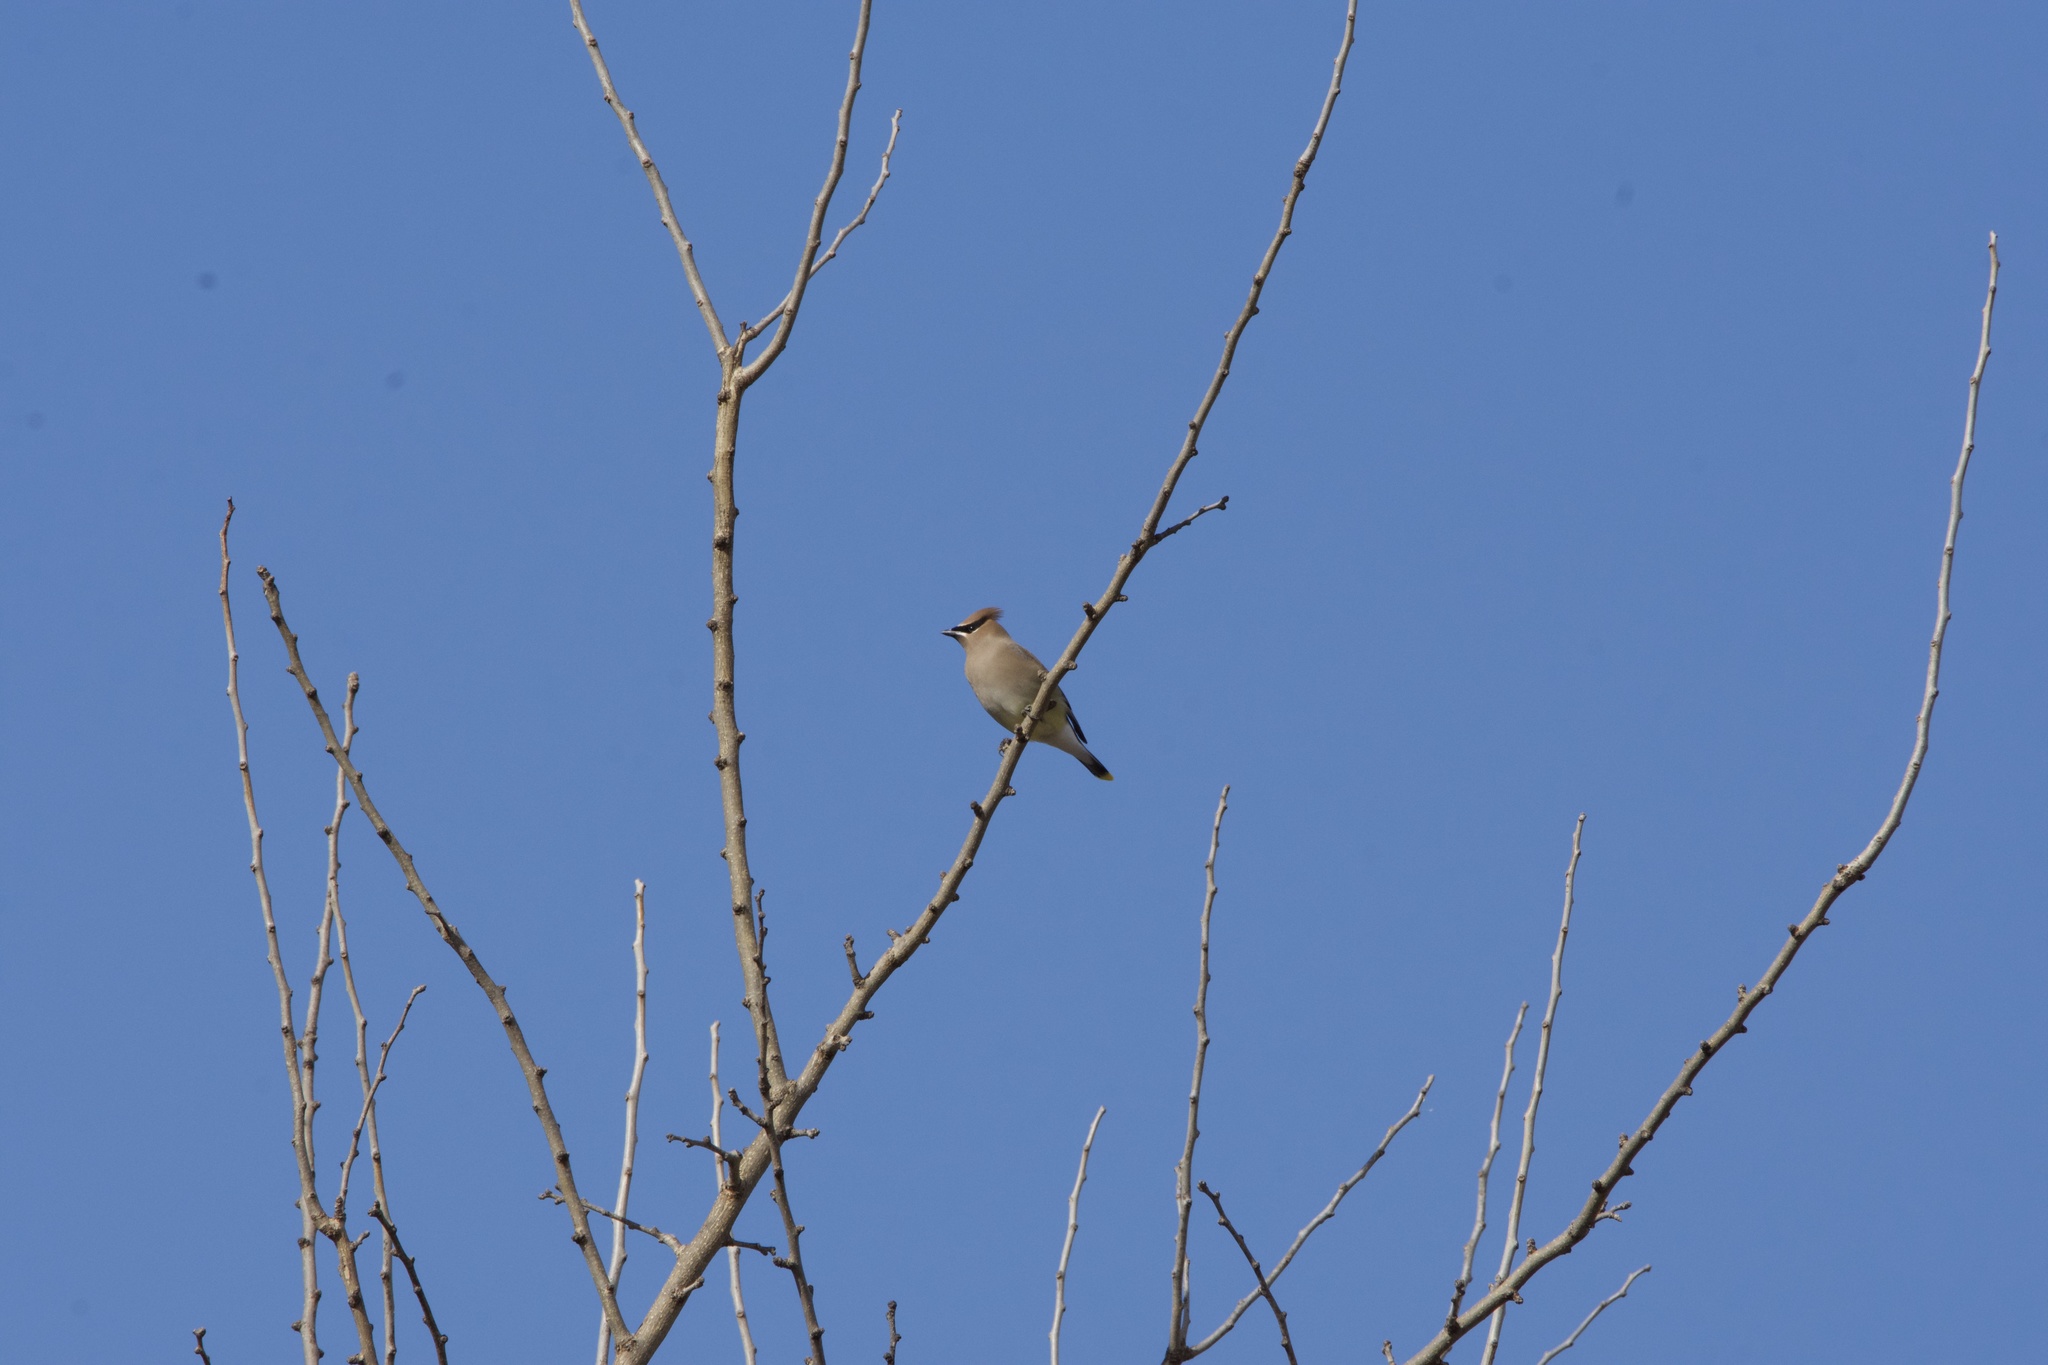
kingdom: Animalia
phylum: Chordata
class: Aves
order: Passeriformes
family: Bombycillidae
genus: Bombycilla
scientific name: Bombycilla cedrorum
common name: Cedar waxwing
